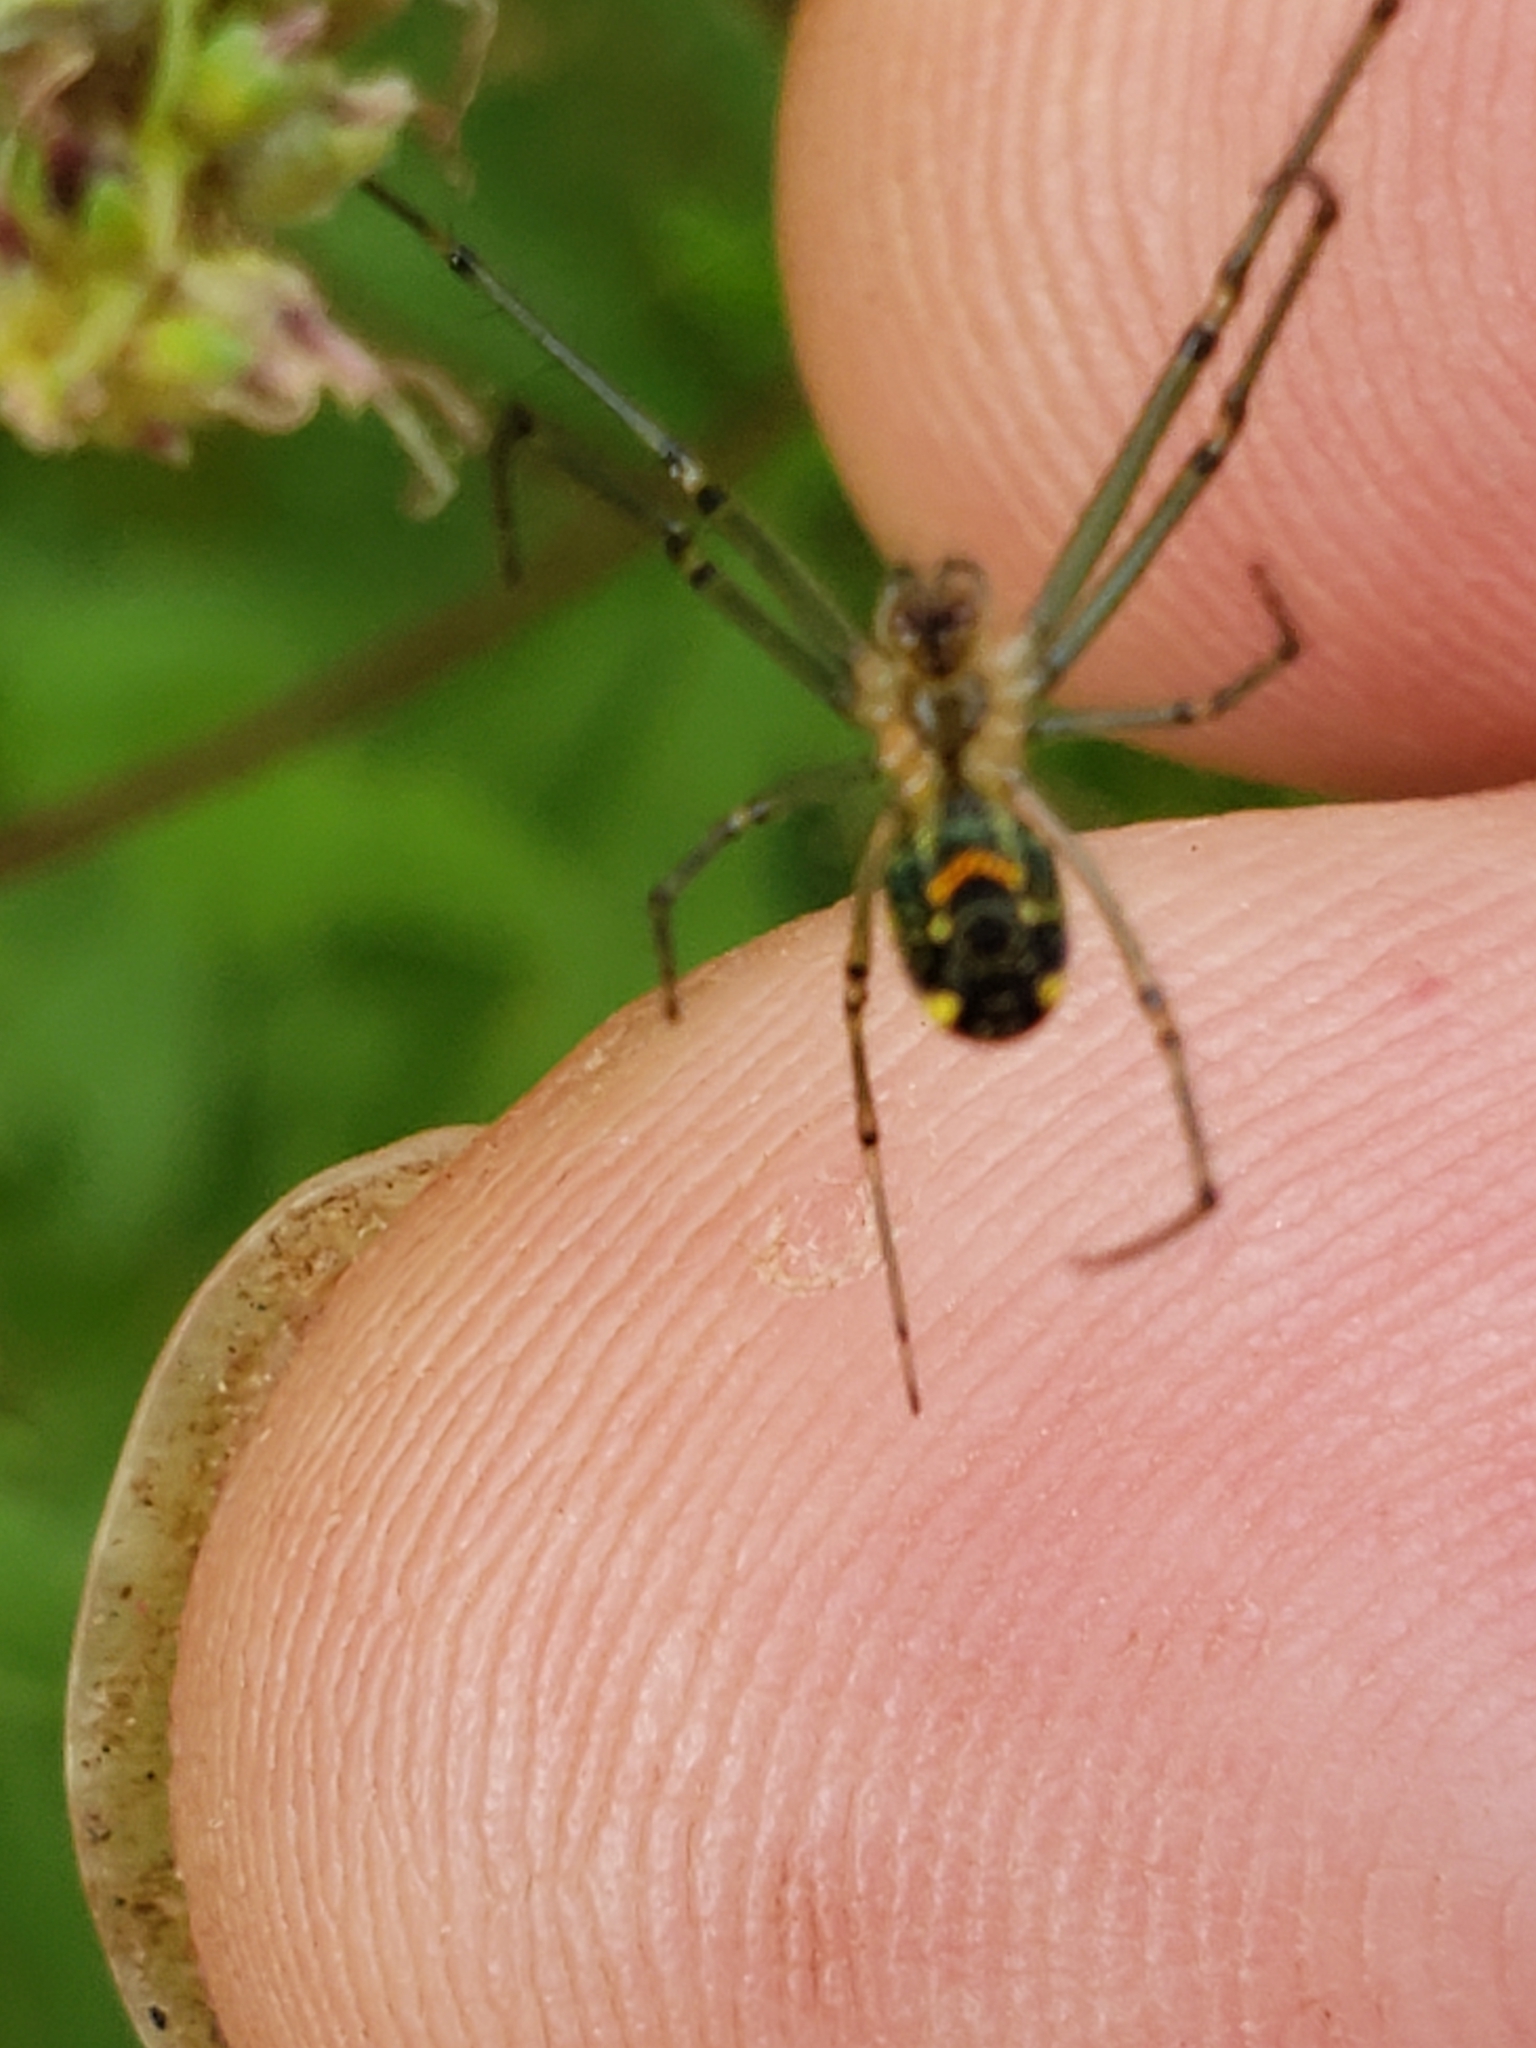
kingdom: Animalia
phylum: Arthropoda
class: Arachnida
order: Araneae
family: Tetragnathidae
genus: Leucauge
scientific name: Leucauge venusta
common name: Longjawed orb weavers
